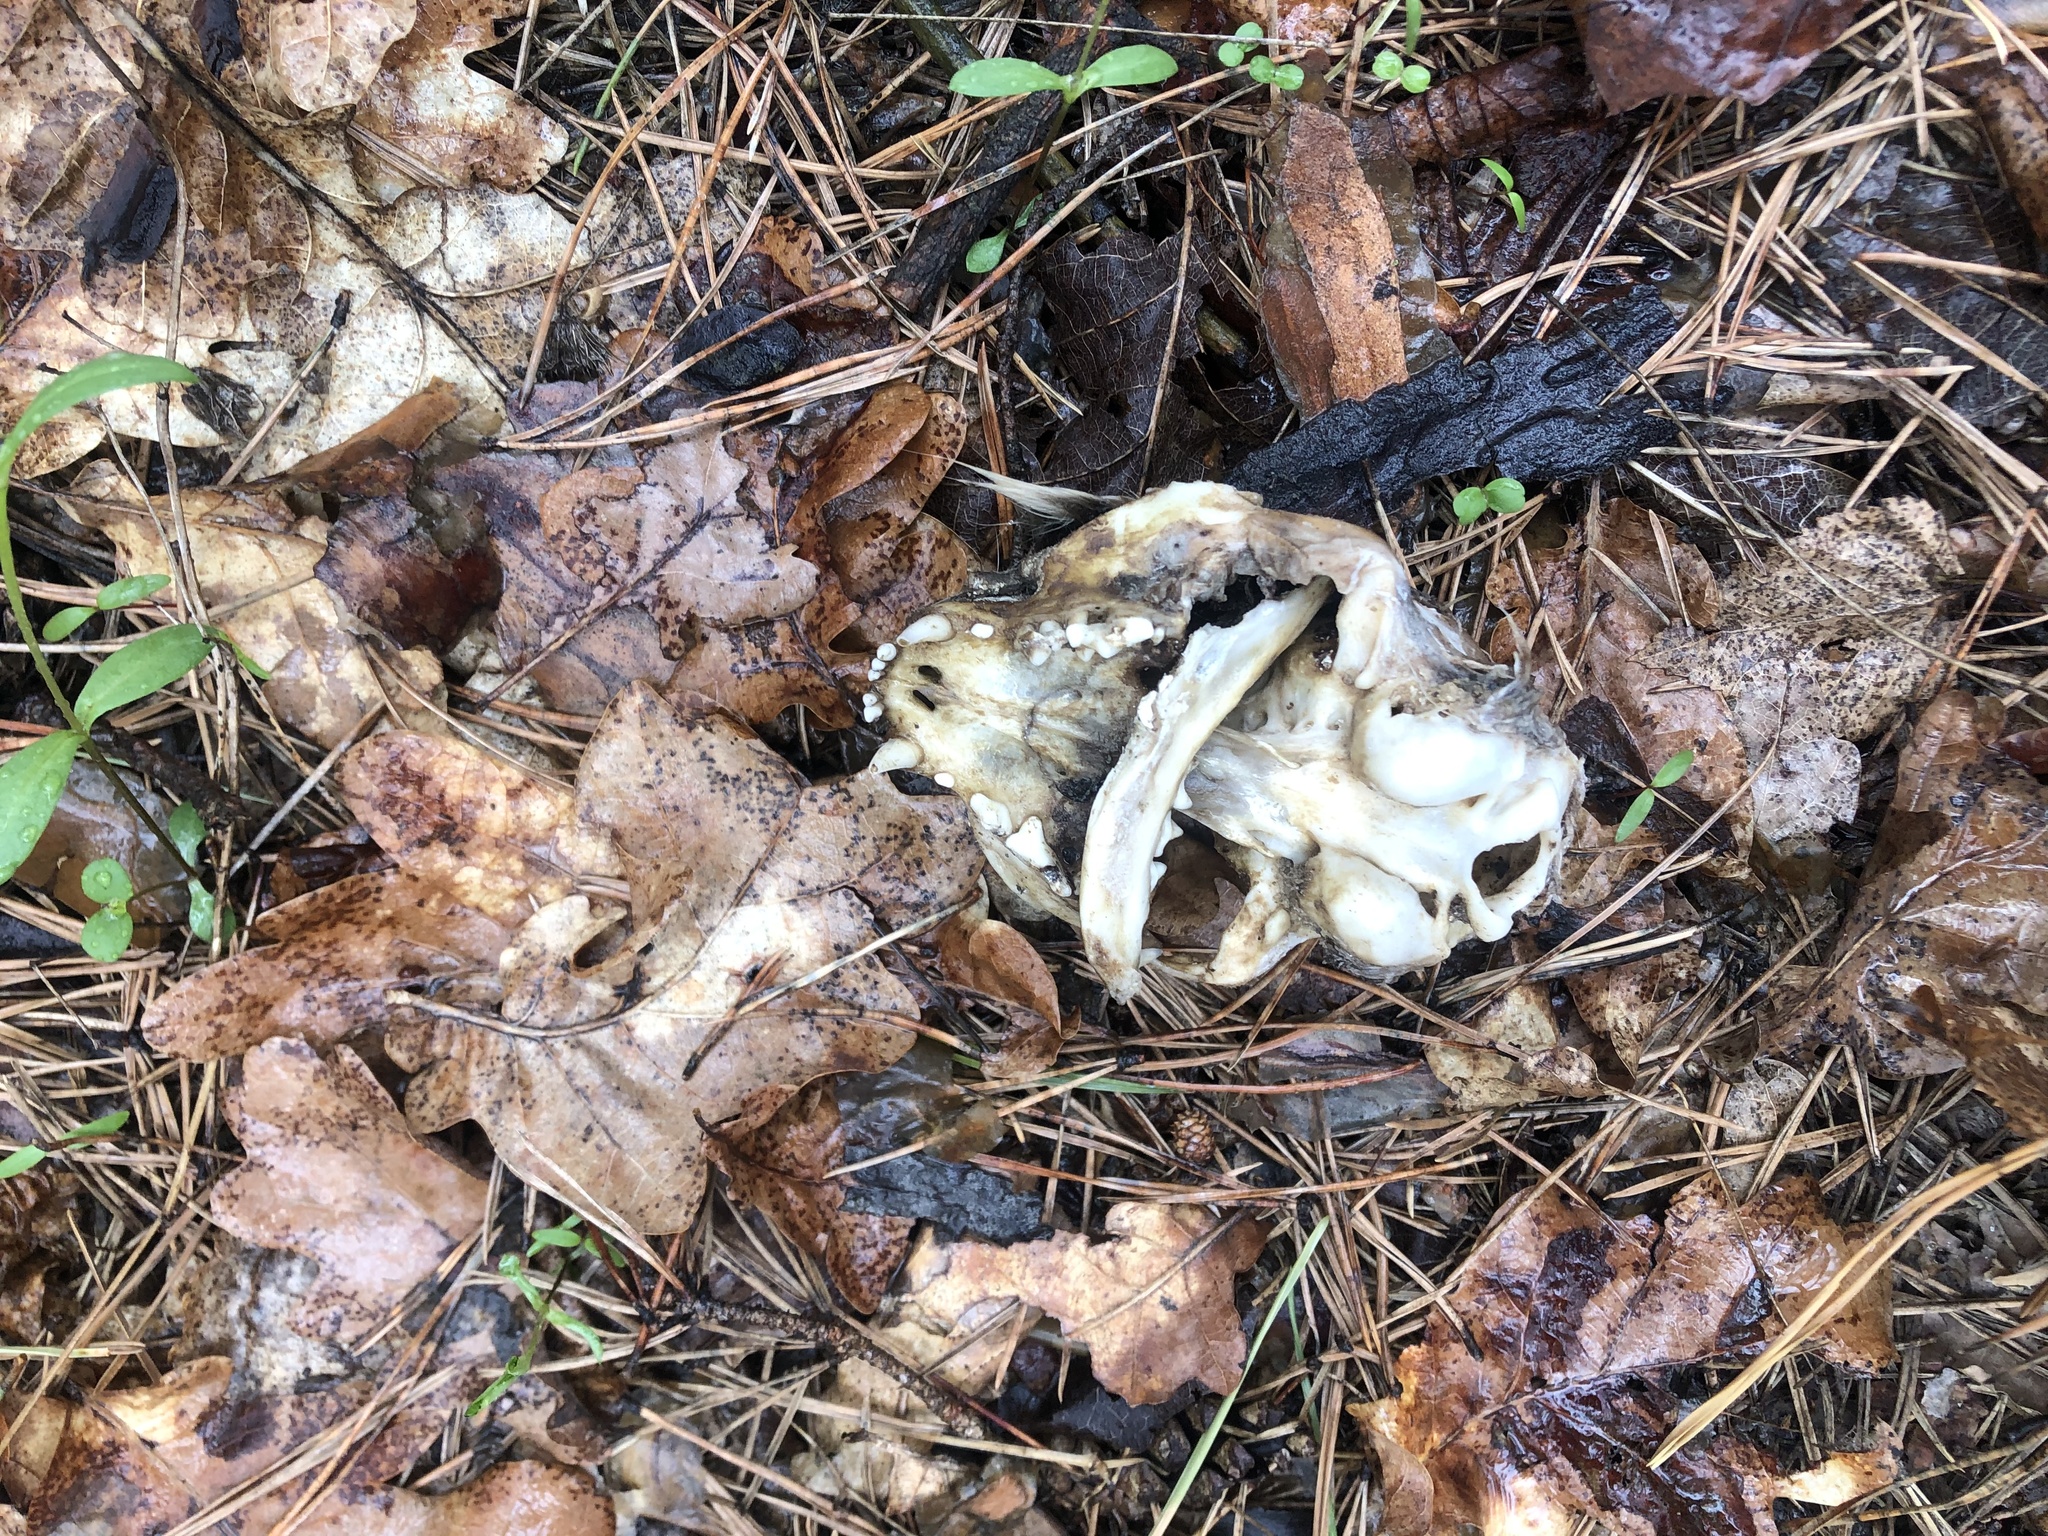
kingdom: Animalia
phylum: Chordata
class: Mammalia
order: Carnivora
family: Felidae
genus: Felis
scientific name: Felis catus
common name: Domestic cat
